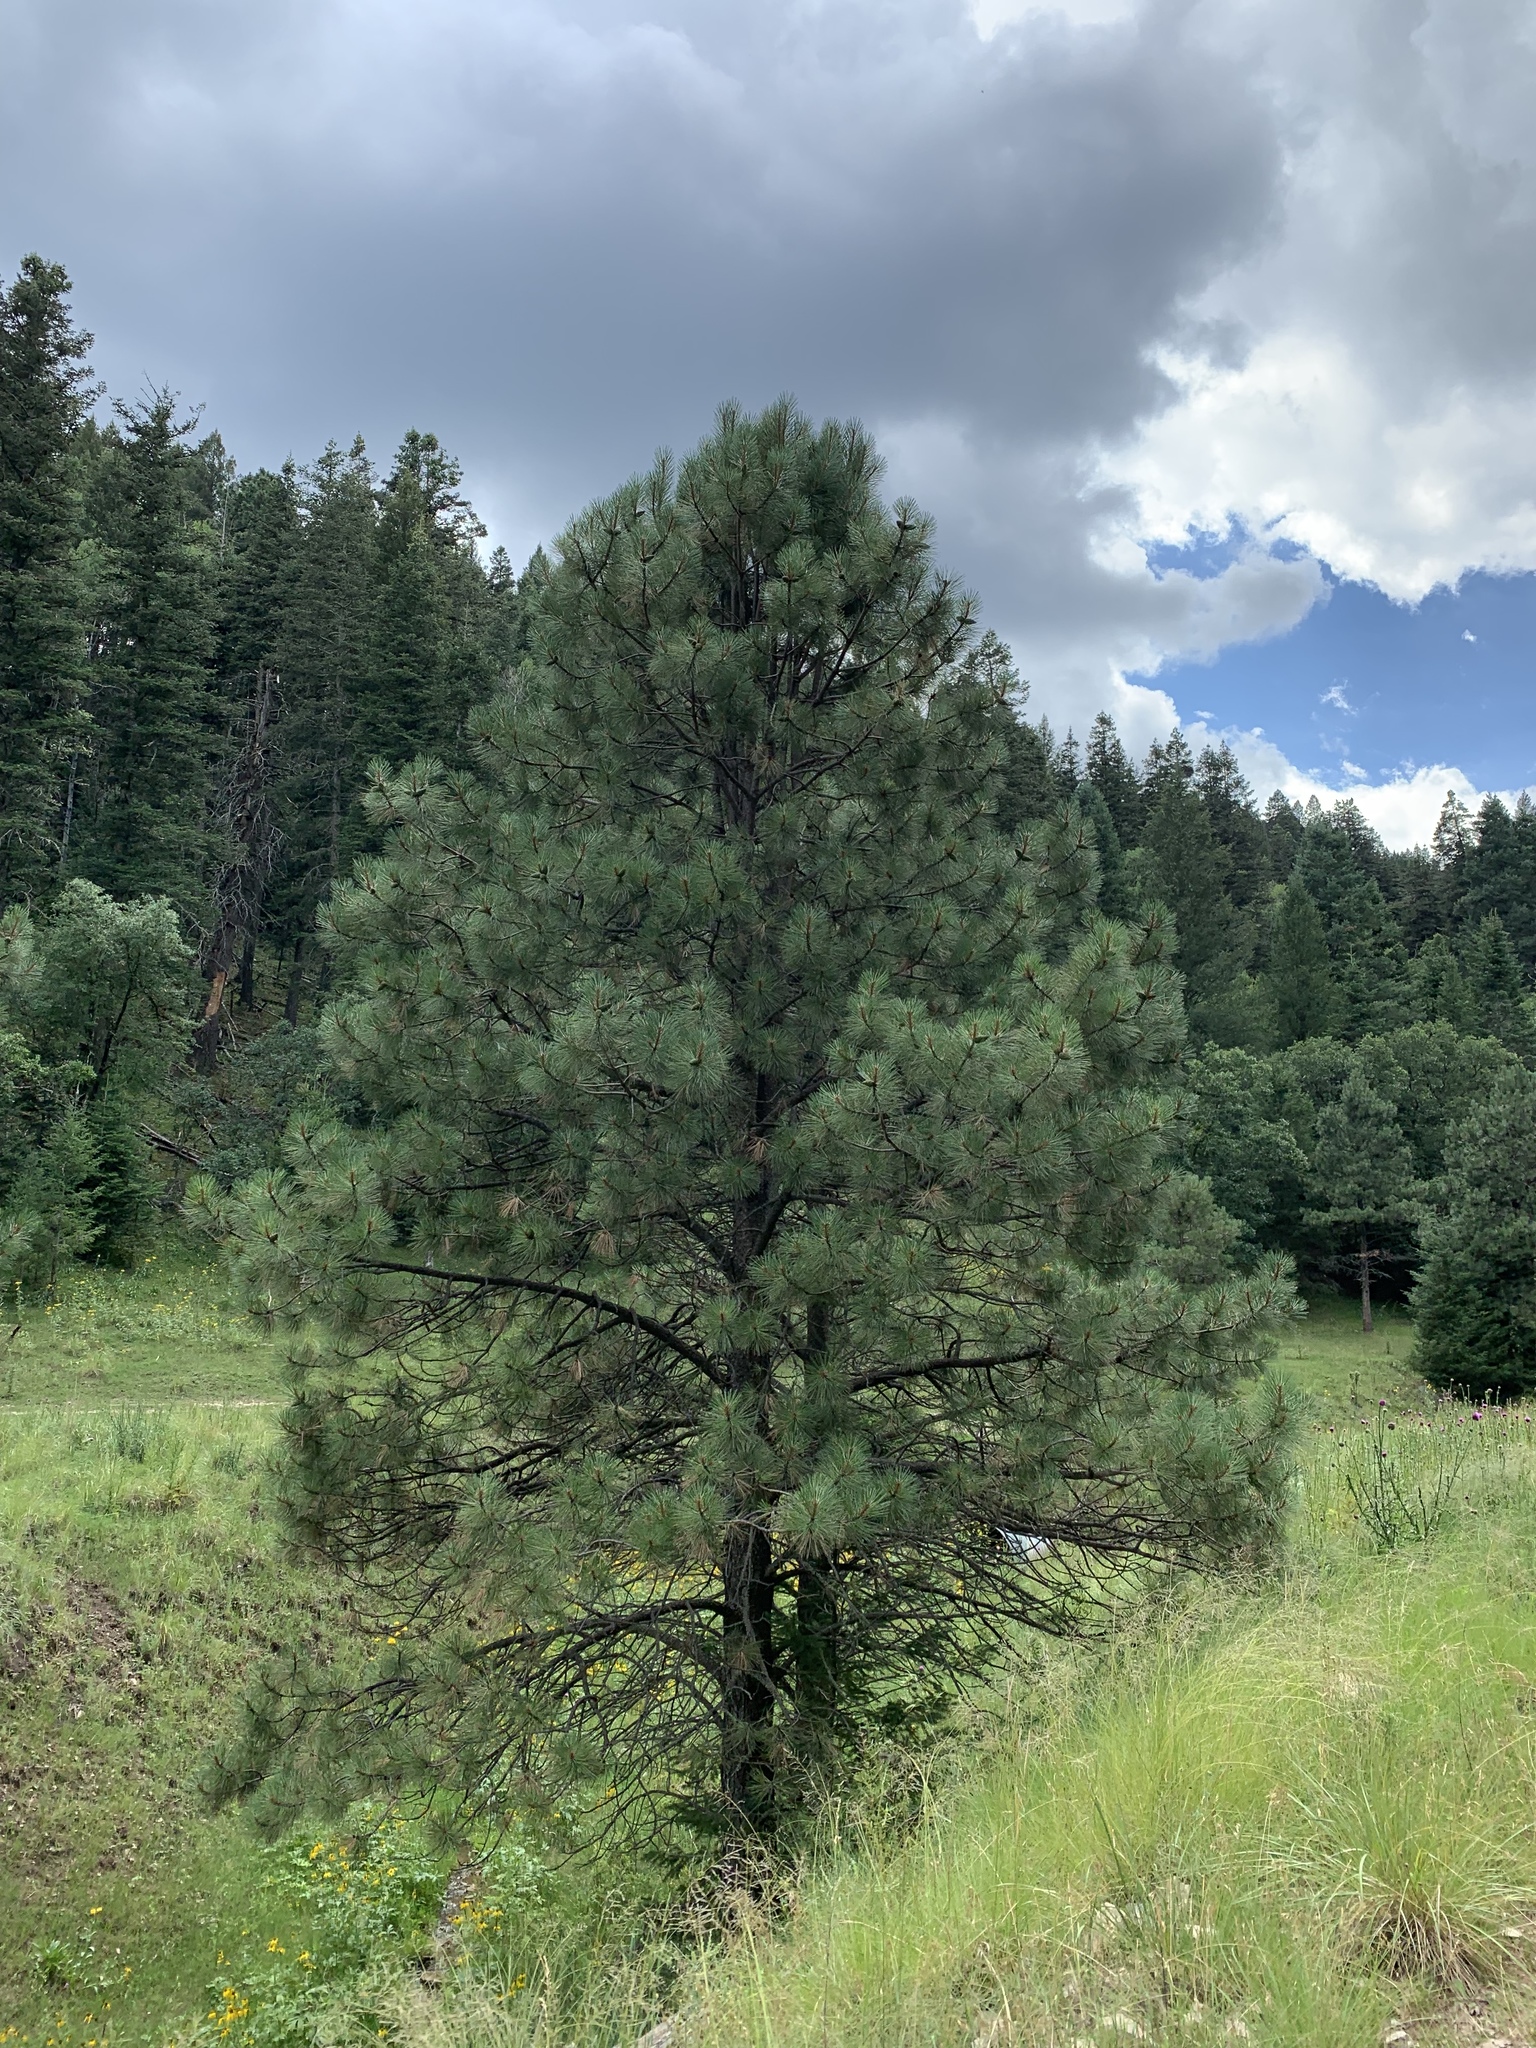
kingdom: Plantae
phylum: Tracheophyta
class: Pinopsida
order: Pinales
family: Pinaceae
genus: Pinus
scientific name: Pinus ponderosa
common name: Western yellow-pine
